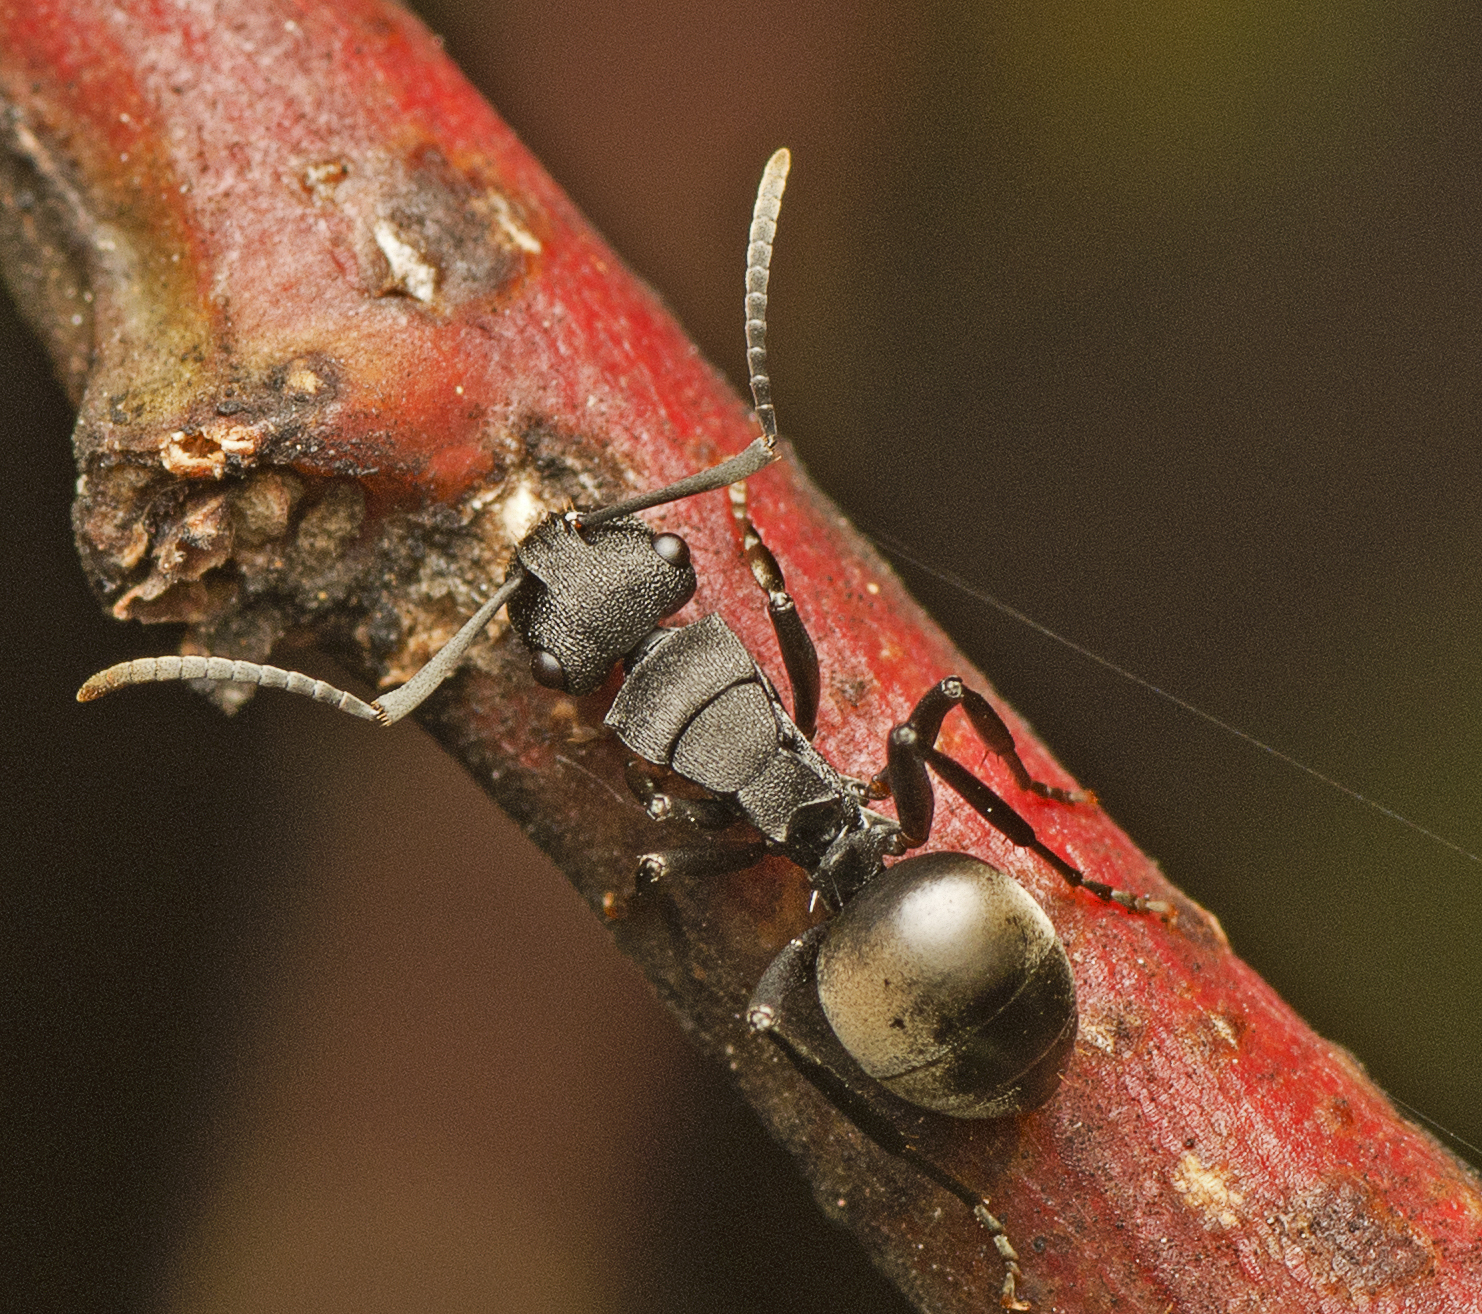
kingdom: Animalia
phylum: Arthropoda
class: Insecta
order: Hymenoptera
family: Formicidae
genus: Polyrhachis
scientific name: Polyrhachis phryne
